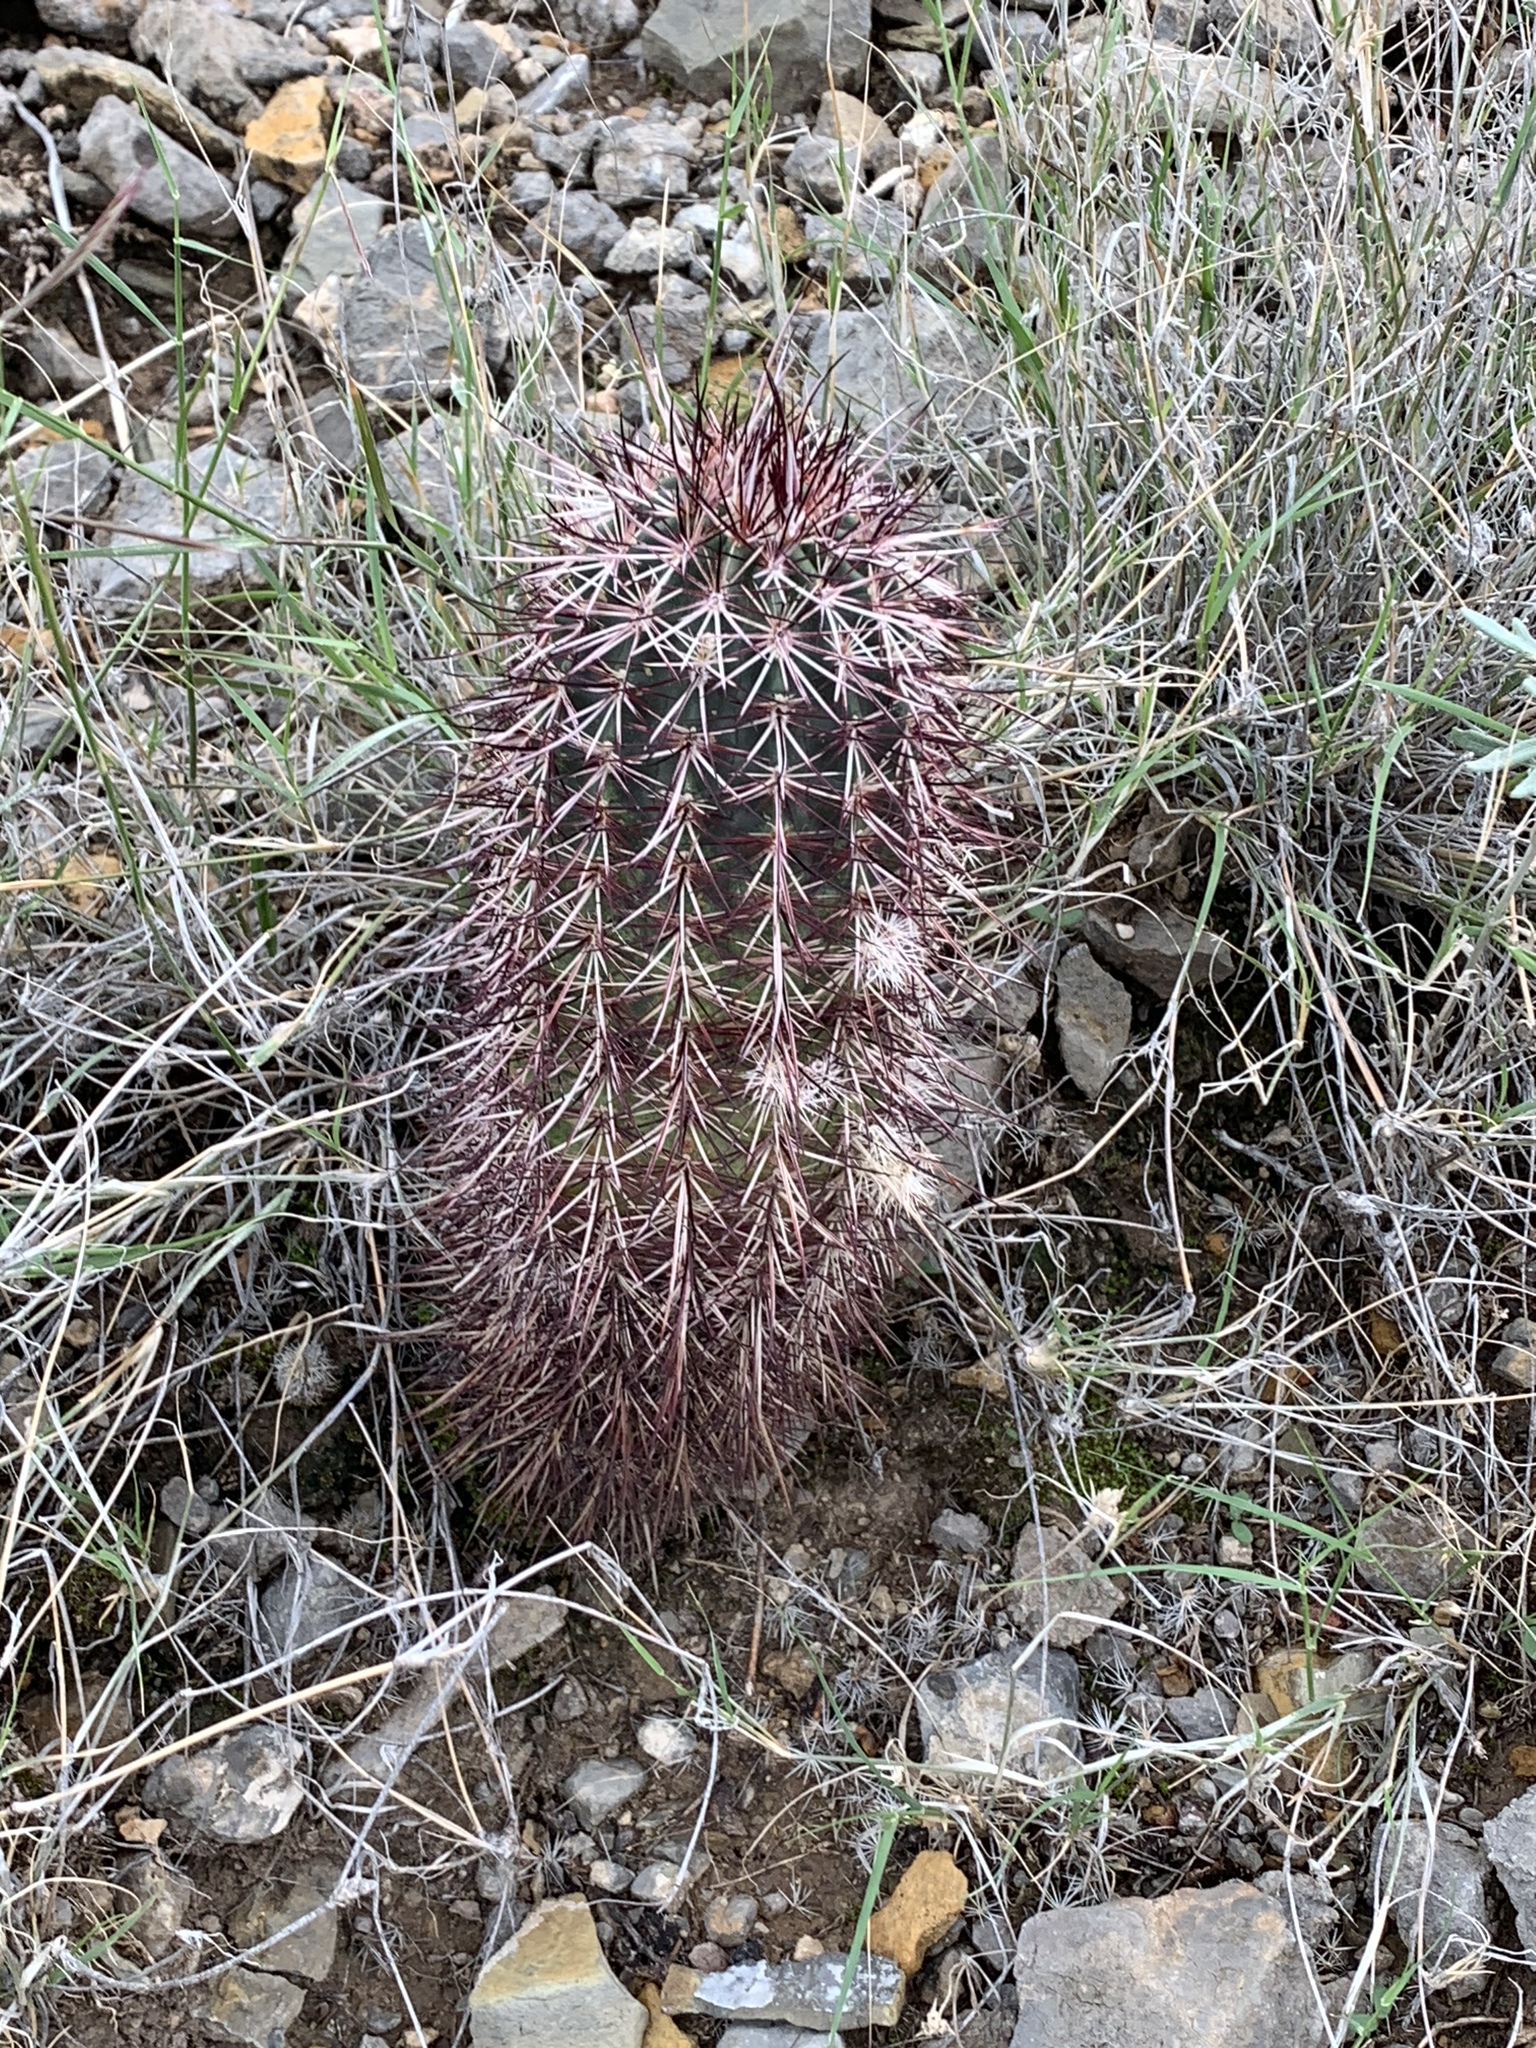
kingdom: Plantae
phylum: Tracheophyta
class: Magnoliopsida
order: Caryophyllales
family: Cactaceae
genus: Echinocereus
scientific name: Echinocereus viridiflorus
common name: Nylon hedgehog cactus
